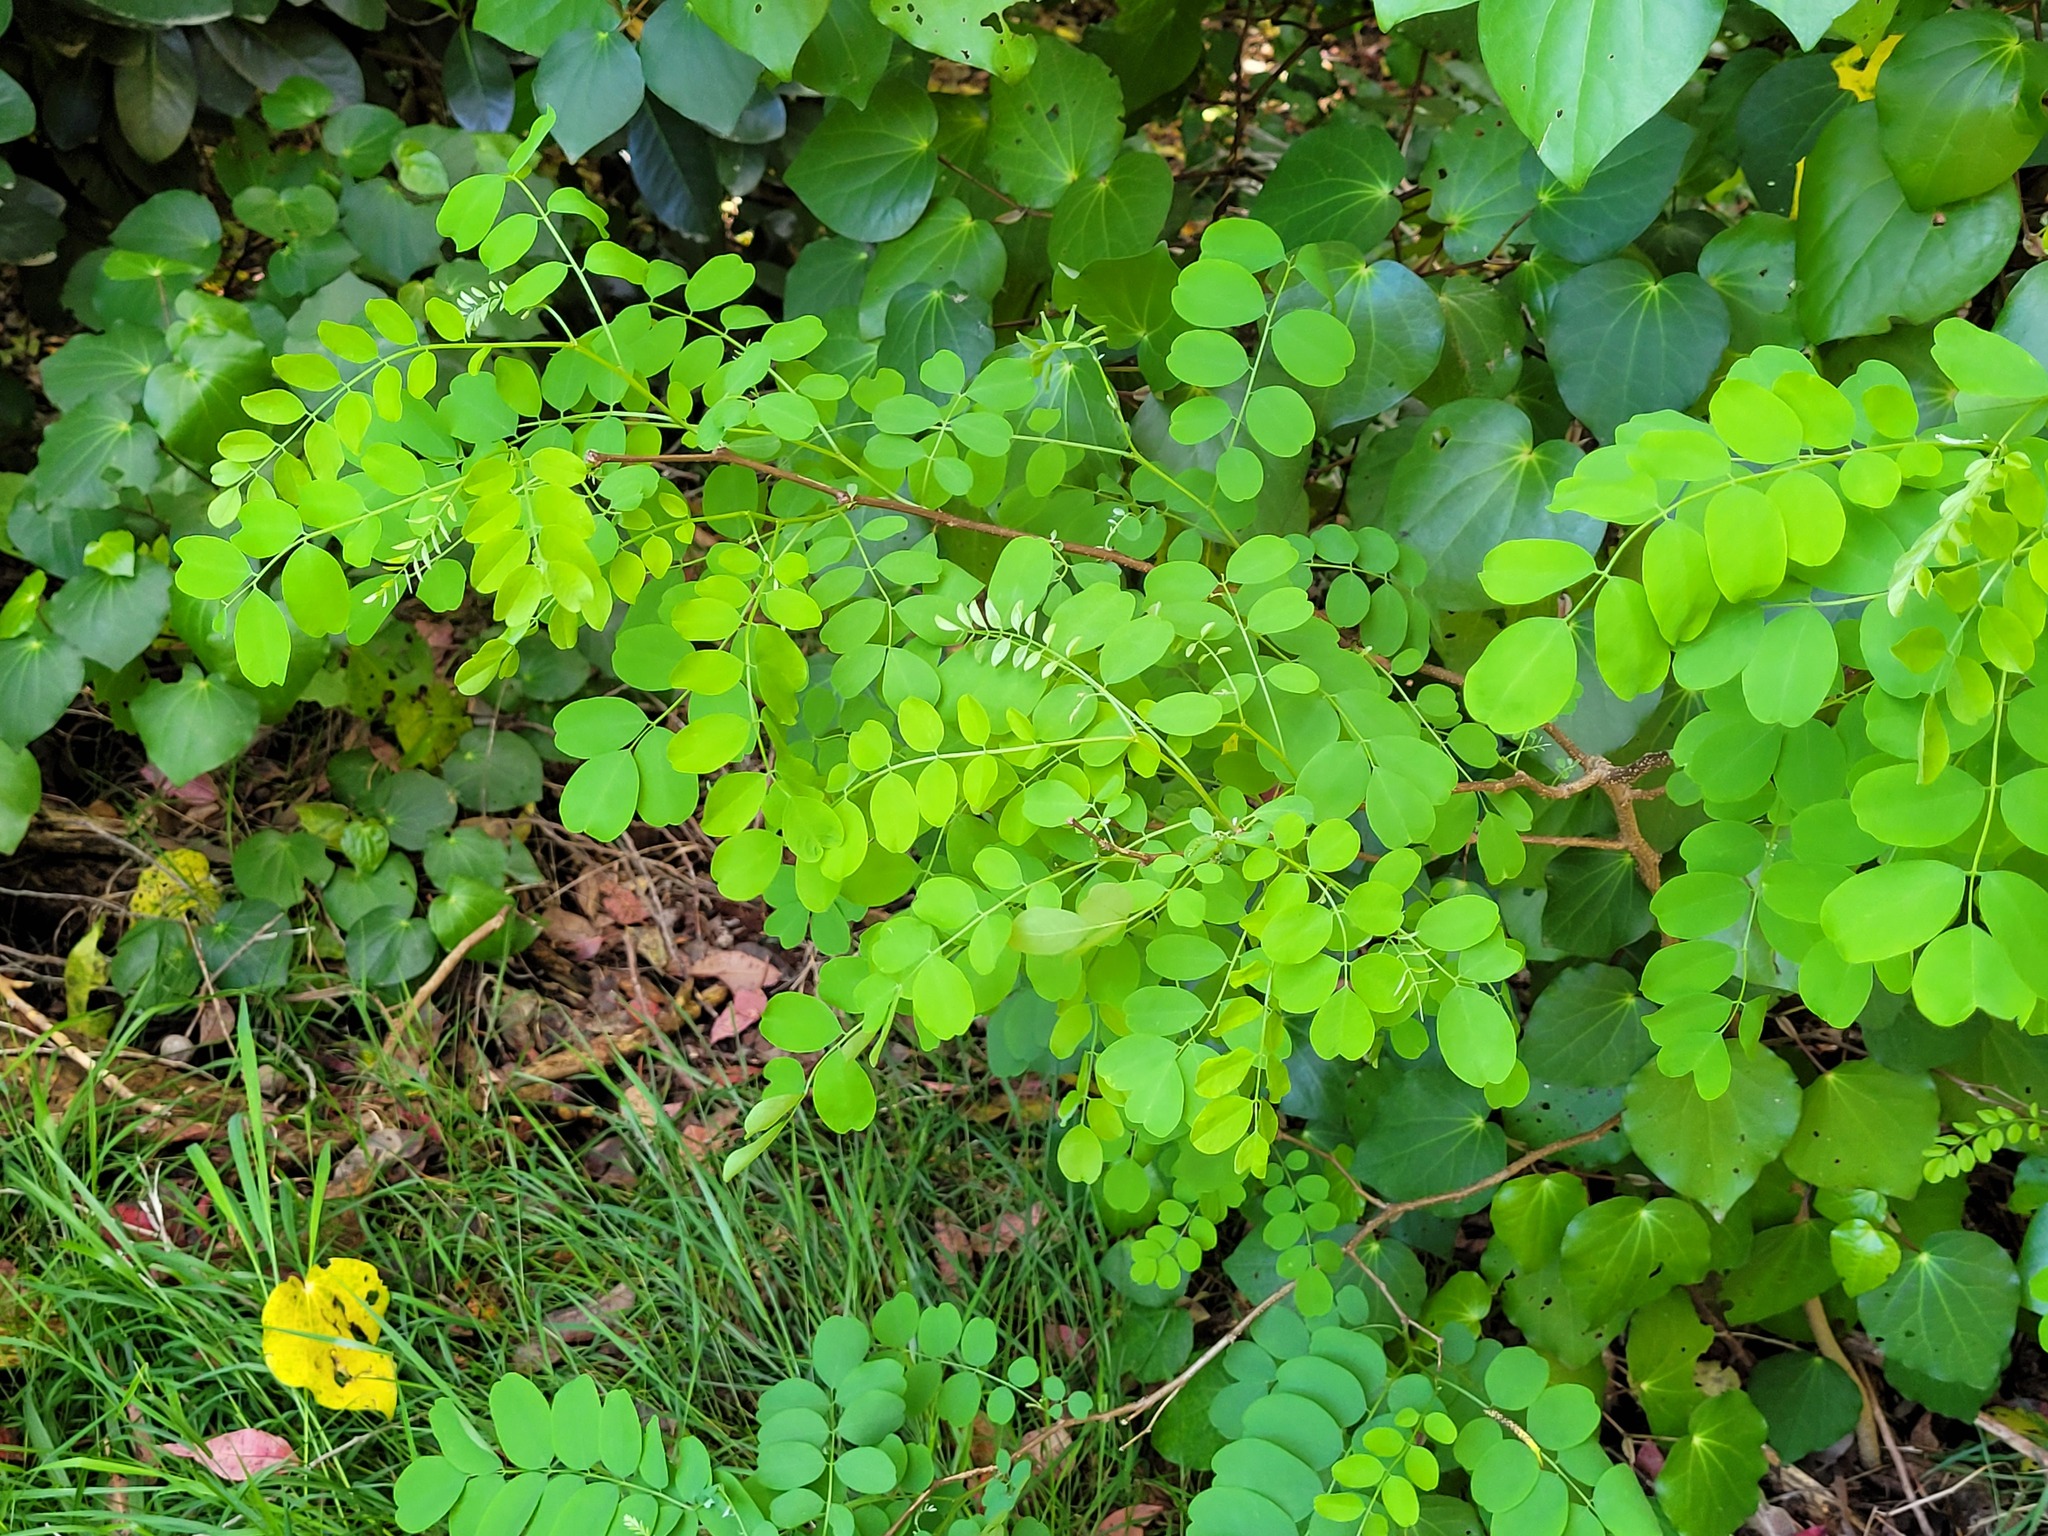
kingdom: Plantae
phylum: Tracheophyta
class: Magnoliopsida
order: Fabales
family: Fabaceae
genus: Robinia
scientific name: Robinia pseudoacacia
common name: Black locust
